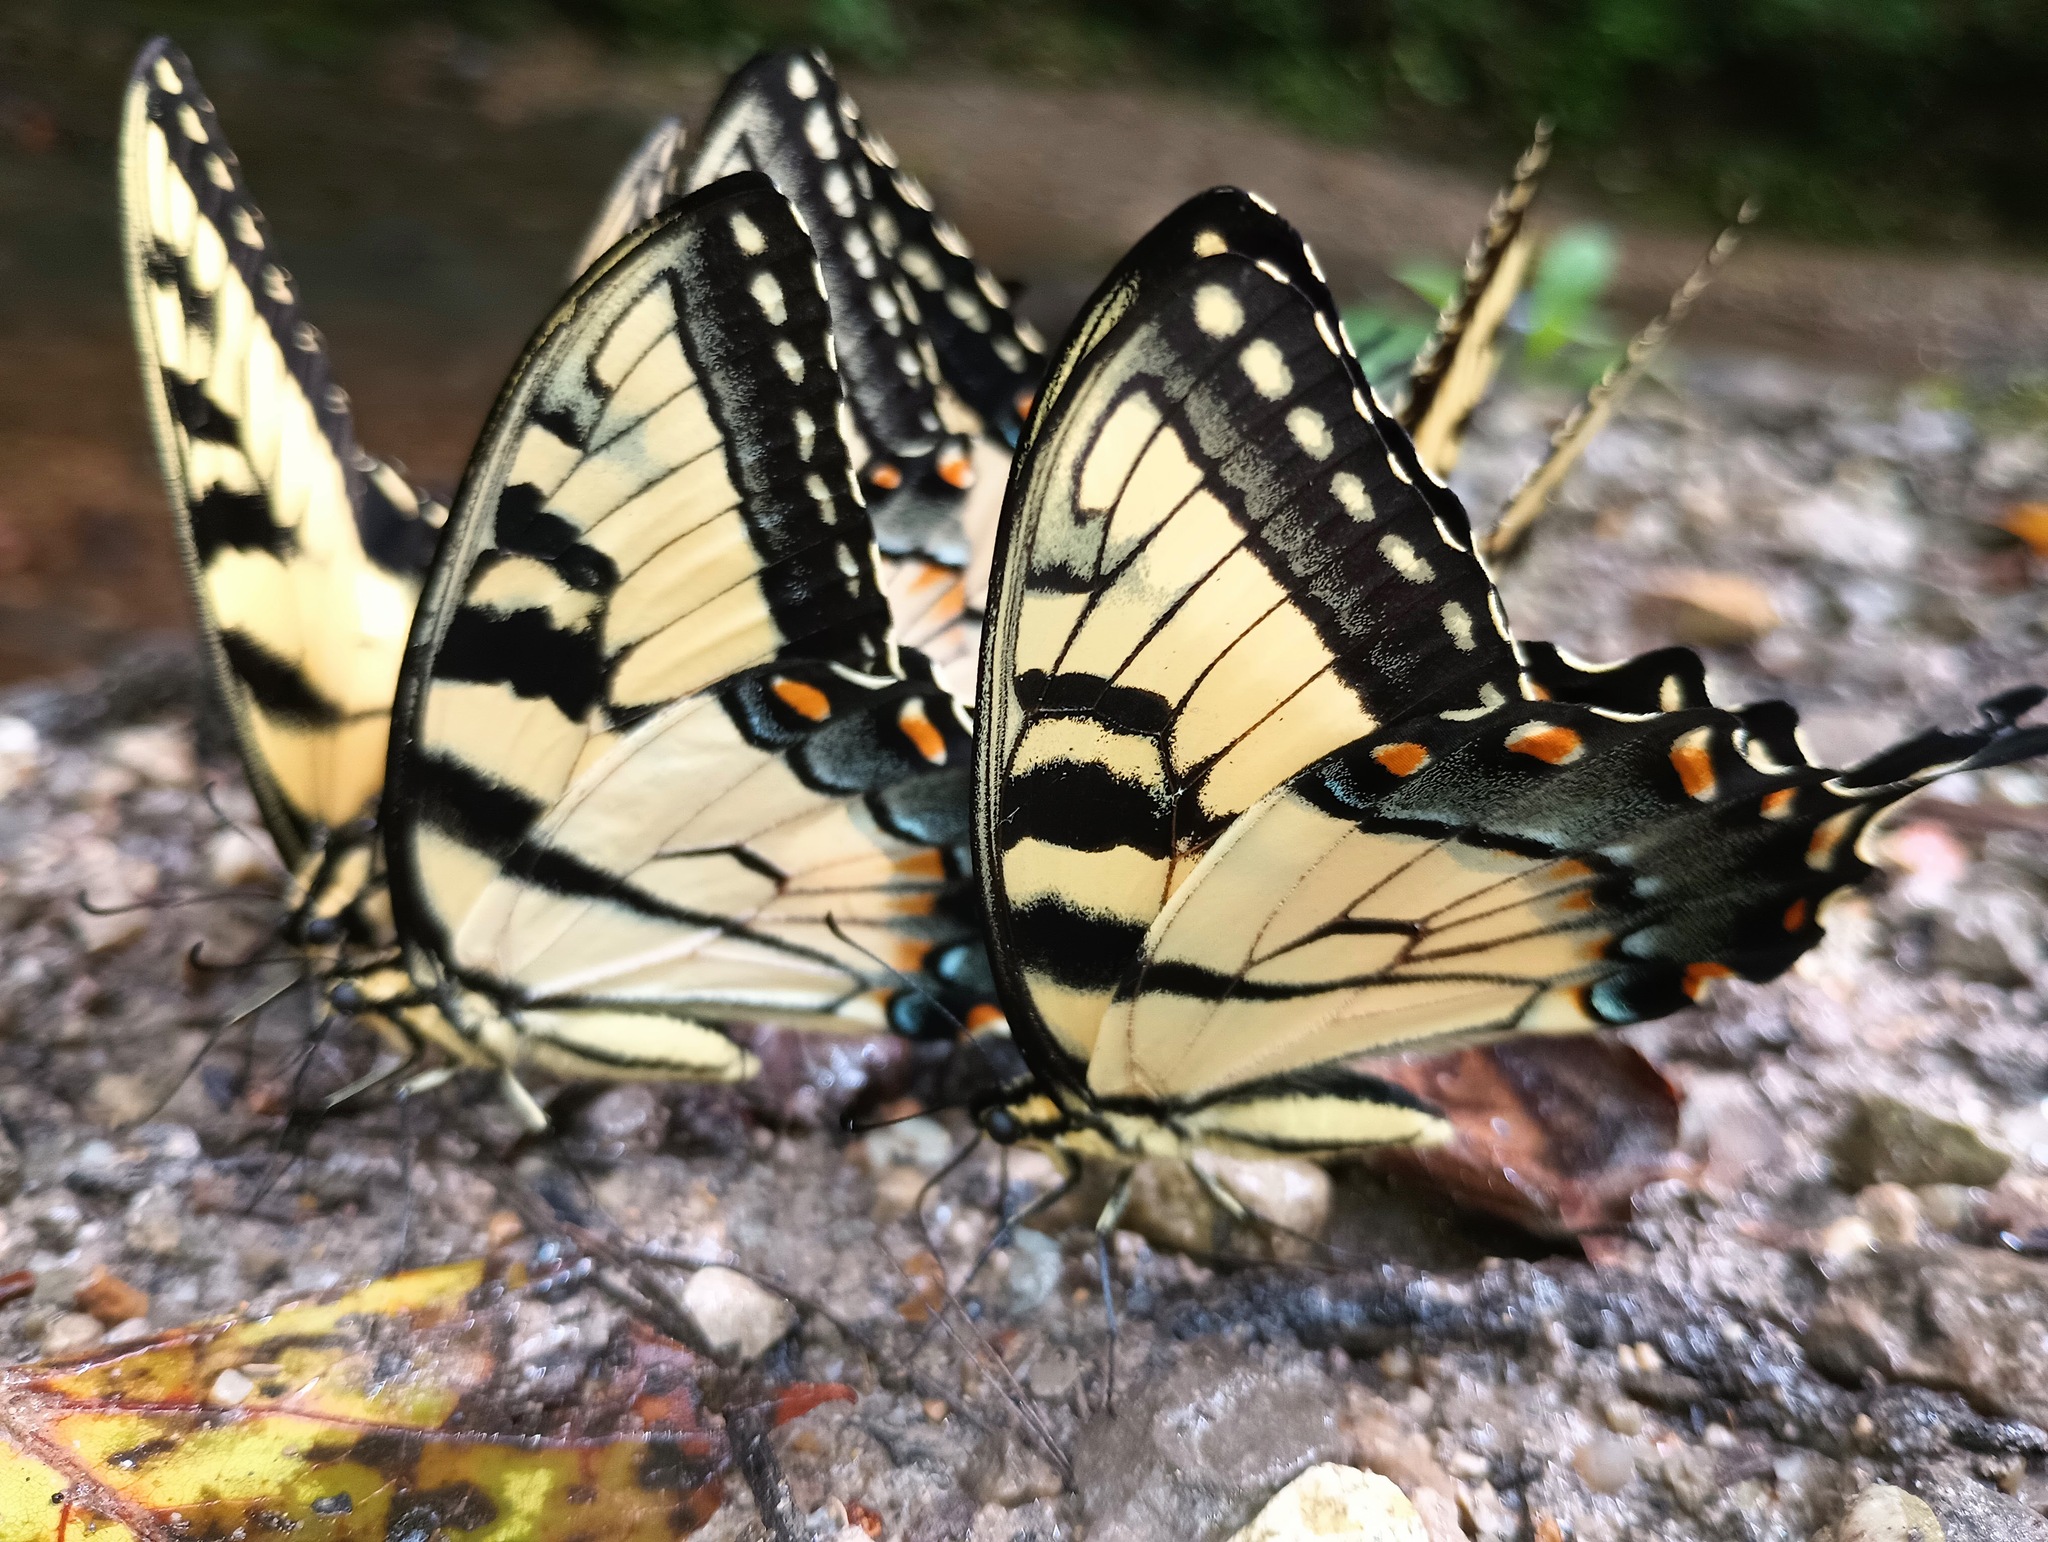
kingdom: Animalia
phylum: Arthropoda
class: Insecta
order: Lepidoptera
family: Papilionidae
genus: Papilio
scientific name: Papilio glaucus
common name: Tiger swallowtail
